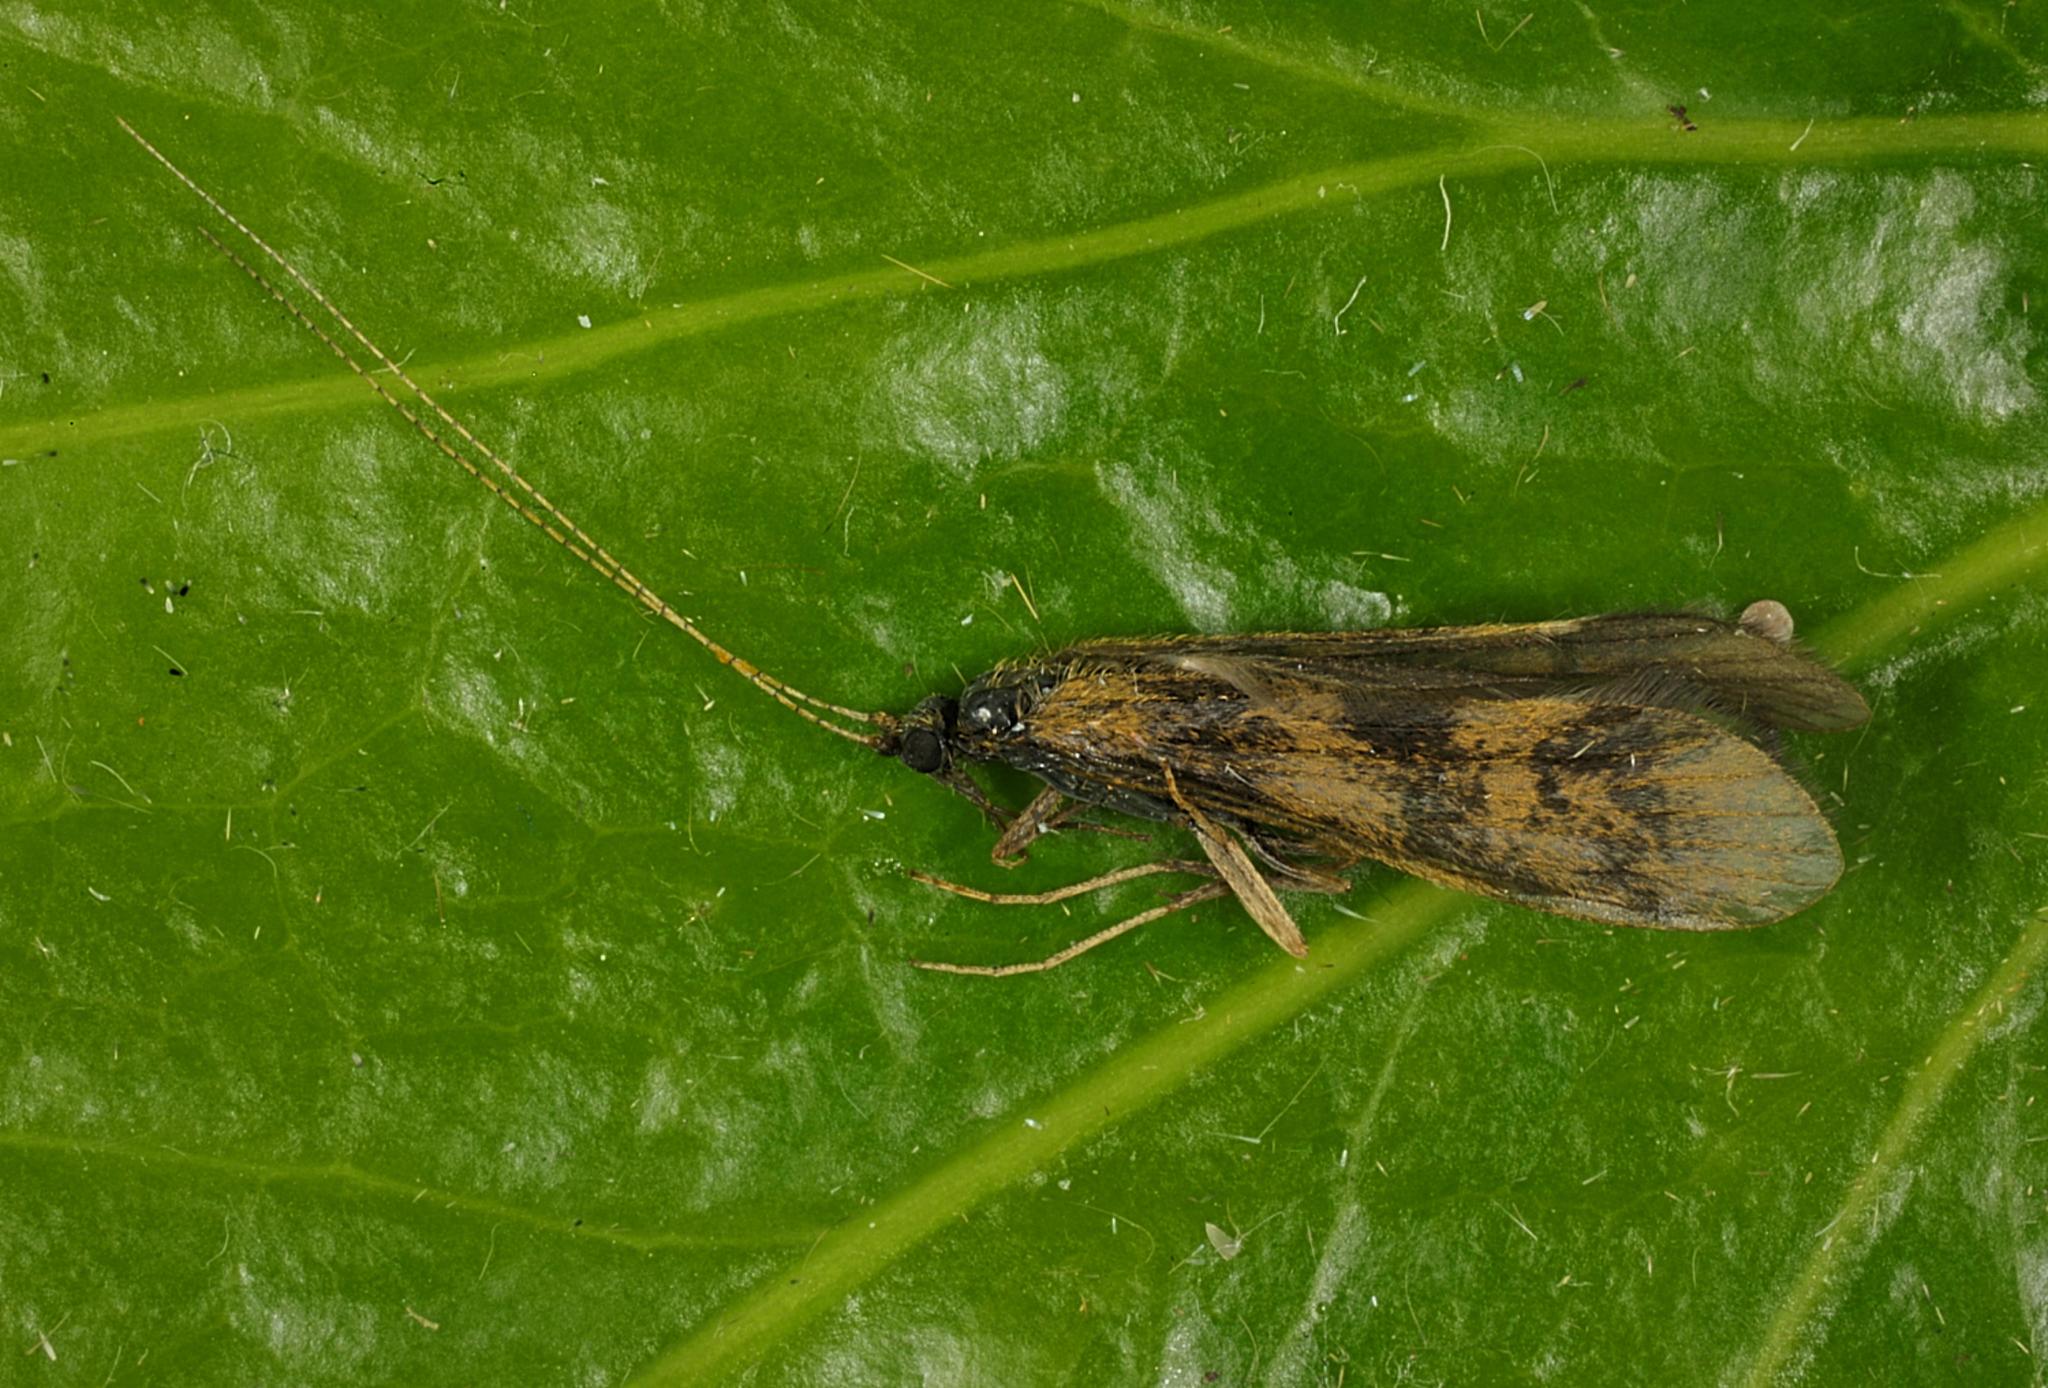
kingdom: Animalia
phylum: Arthropoda
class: Insecta
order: Trichoptera
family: Leptoceridae
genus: Mystacides
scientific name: Mystacides longicornis
